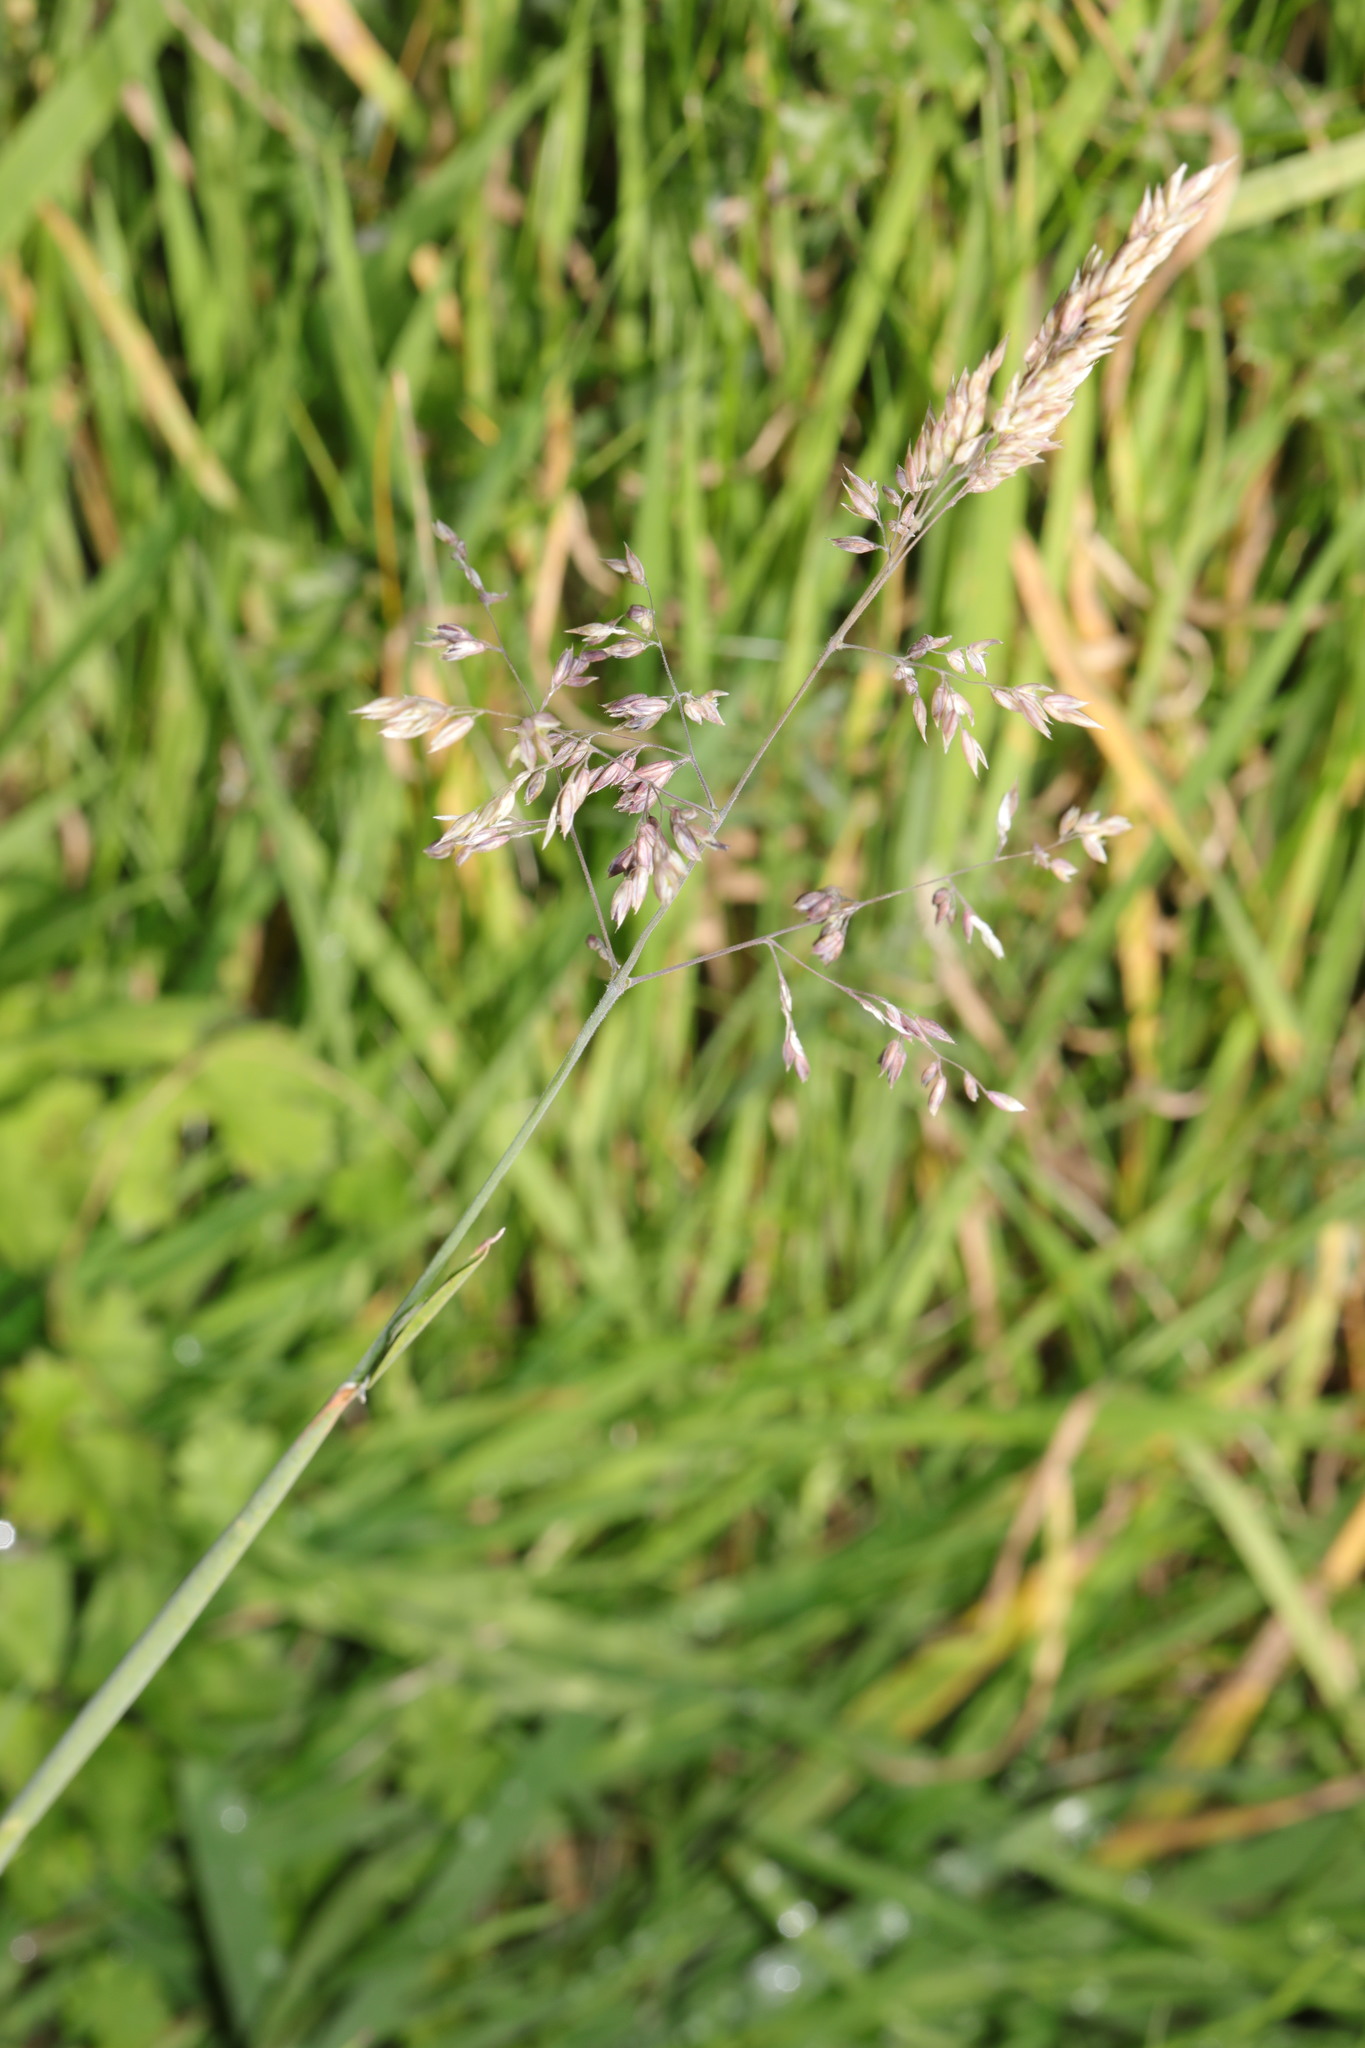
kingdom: Plantae
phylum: Tracheophyta
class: Liliopsida
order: Poales
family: Poaceae
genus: Holcus
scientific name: Holcus lanatus
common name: Yorkshire-fog
